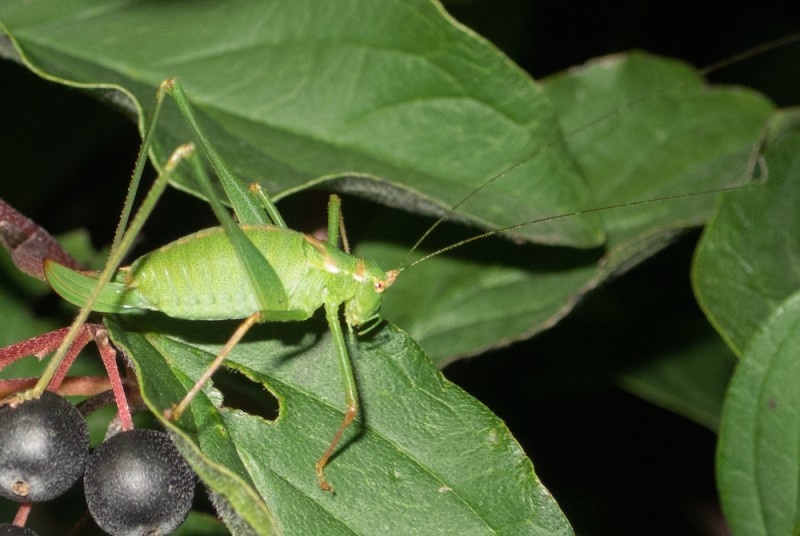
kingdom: Animalia
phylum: Arthropoda
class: Insecta
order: Orthoptera
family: Tettigoniidae
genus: Leptophyes
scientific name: Leptophyes punctatissima
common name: Speckled bush-cricket
